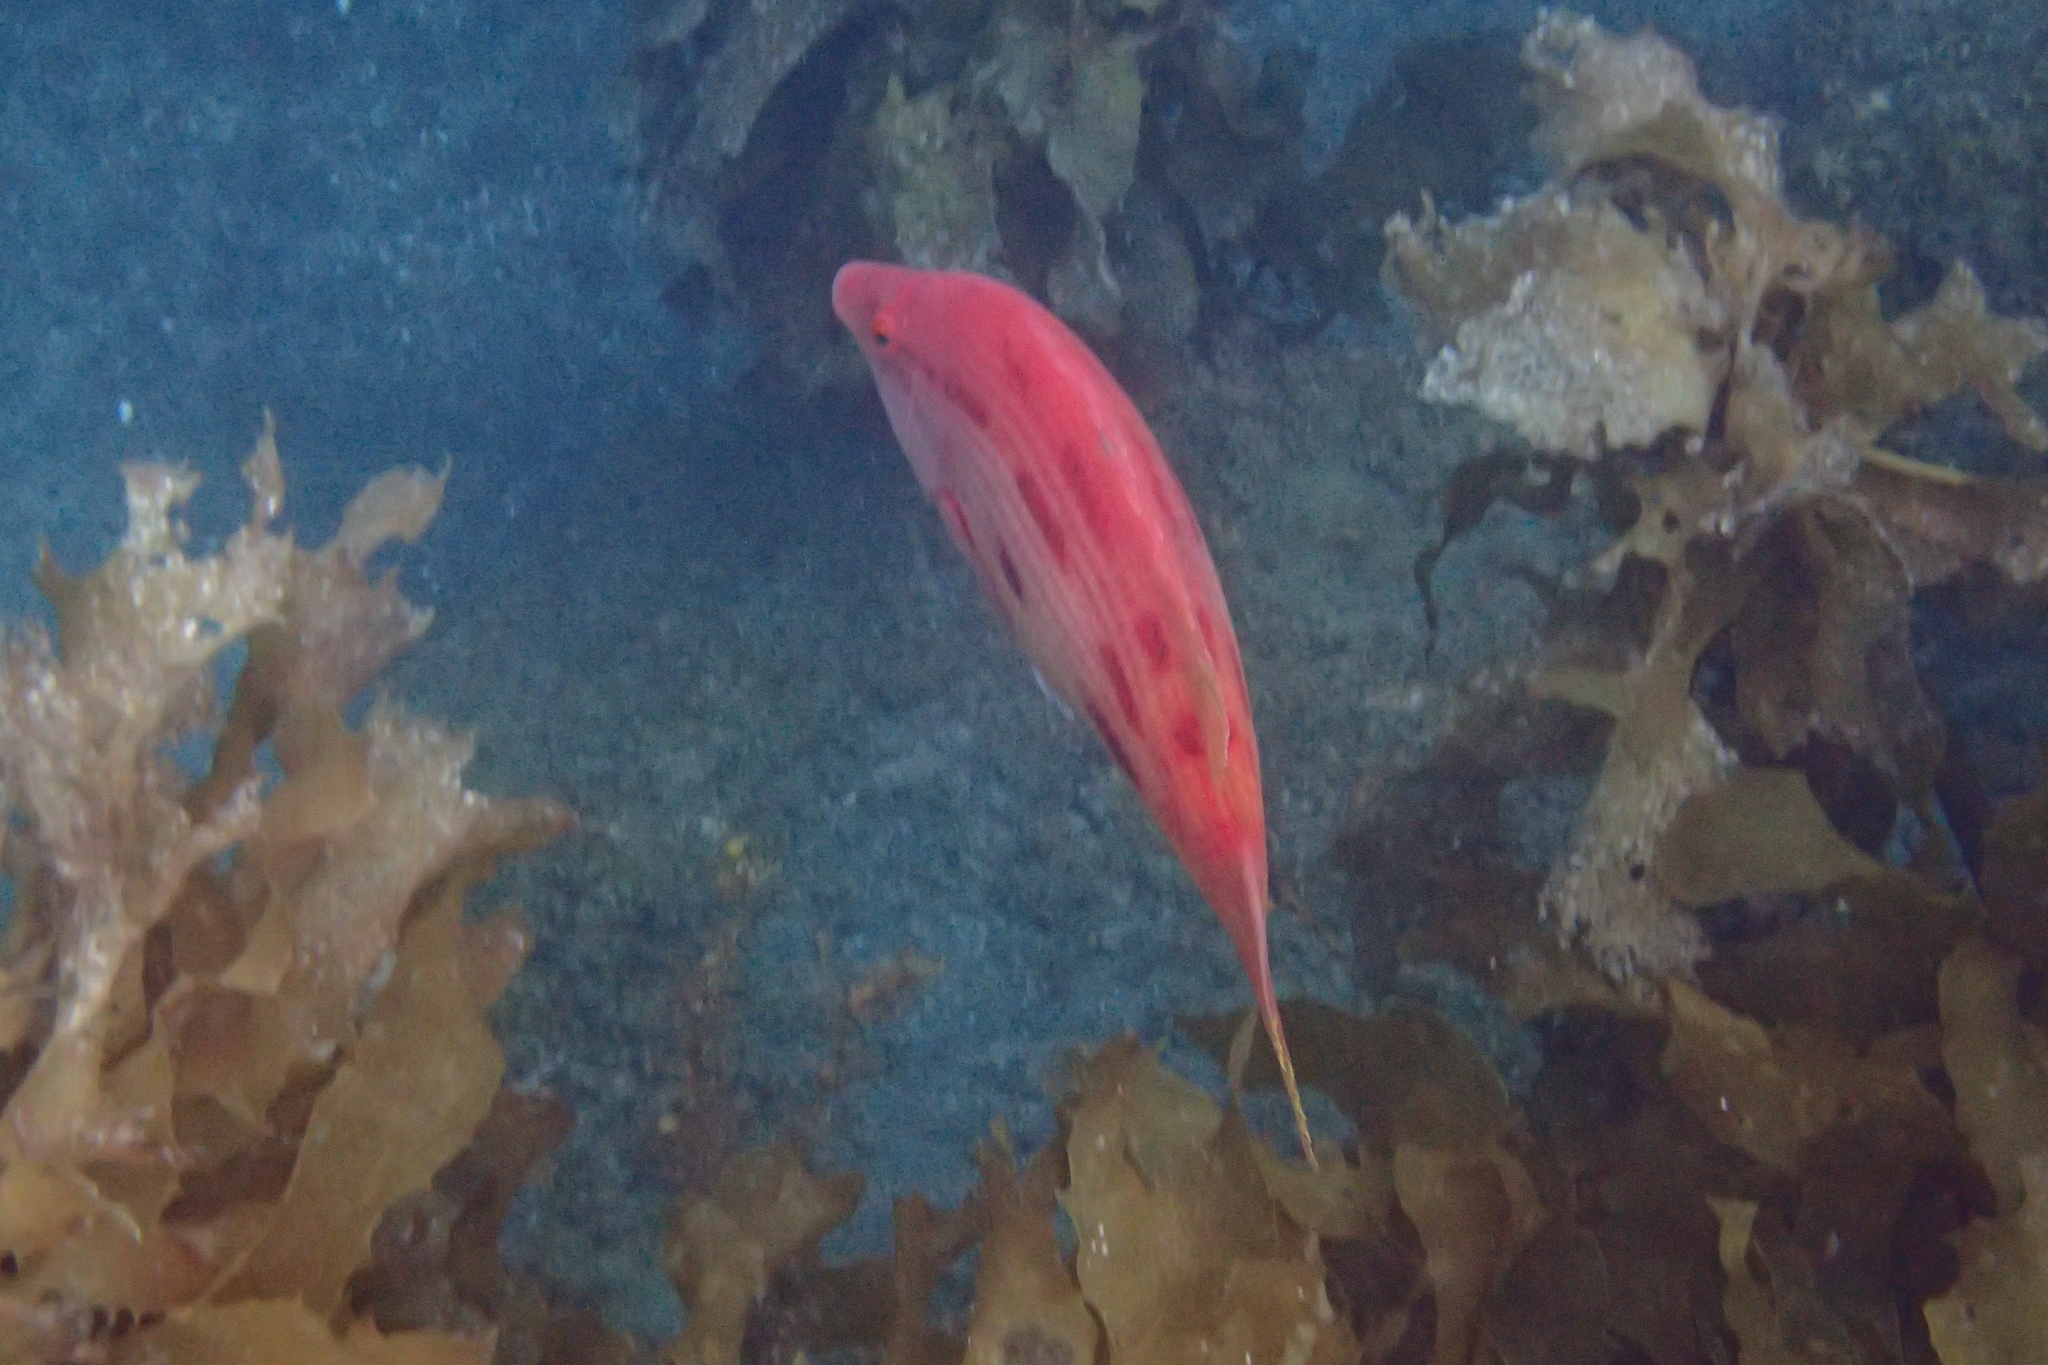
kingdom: Animalia
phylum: Chordata
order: Perciformes
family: Labridae
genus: Bodianus
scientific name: Bodianus unimaculatus
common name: Pigfish
